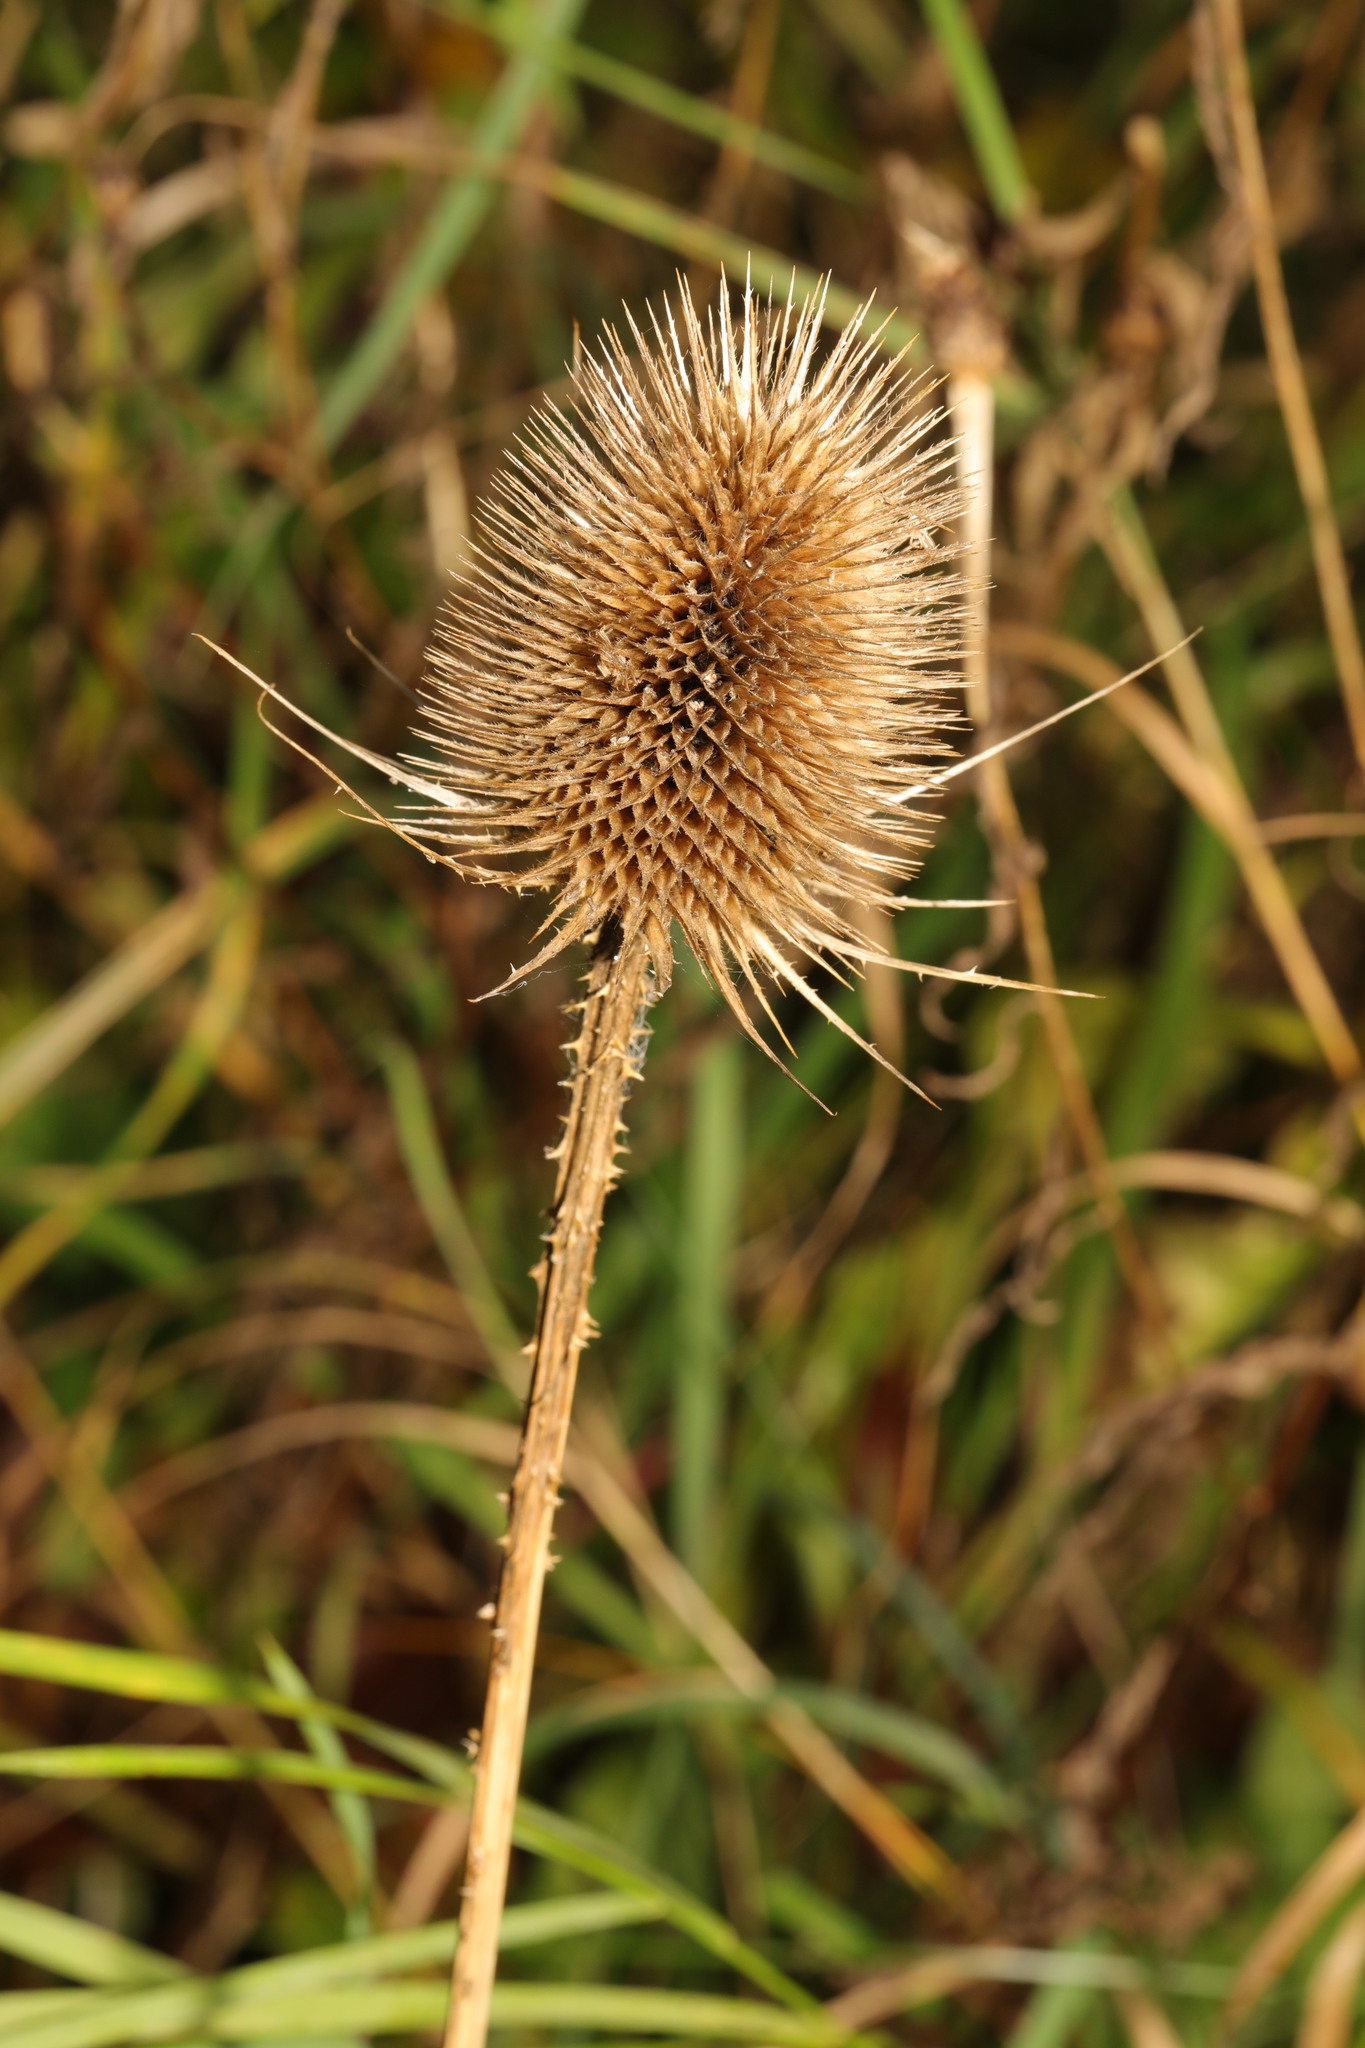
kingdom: Plantae
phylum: Tracheophyta
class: Magnoliopsida
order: Dipsacales
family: Caprifoliaceae
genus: Dipsacus
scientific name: Dipsacus fullonum
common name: Teasel
